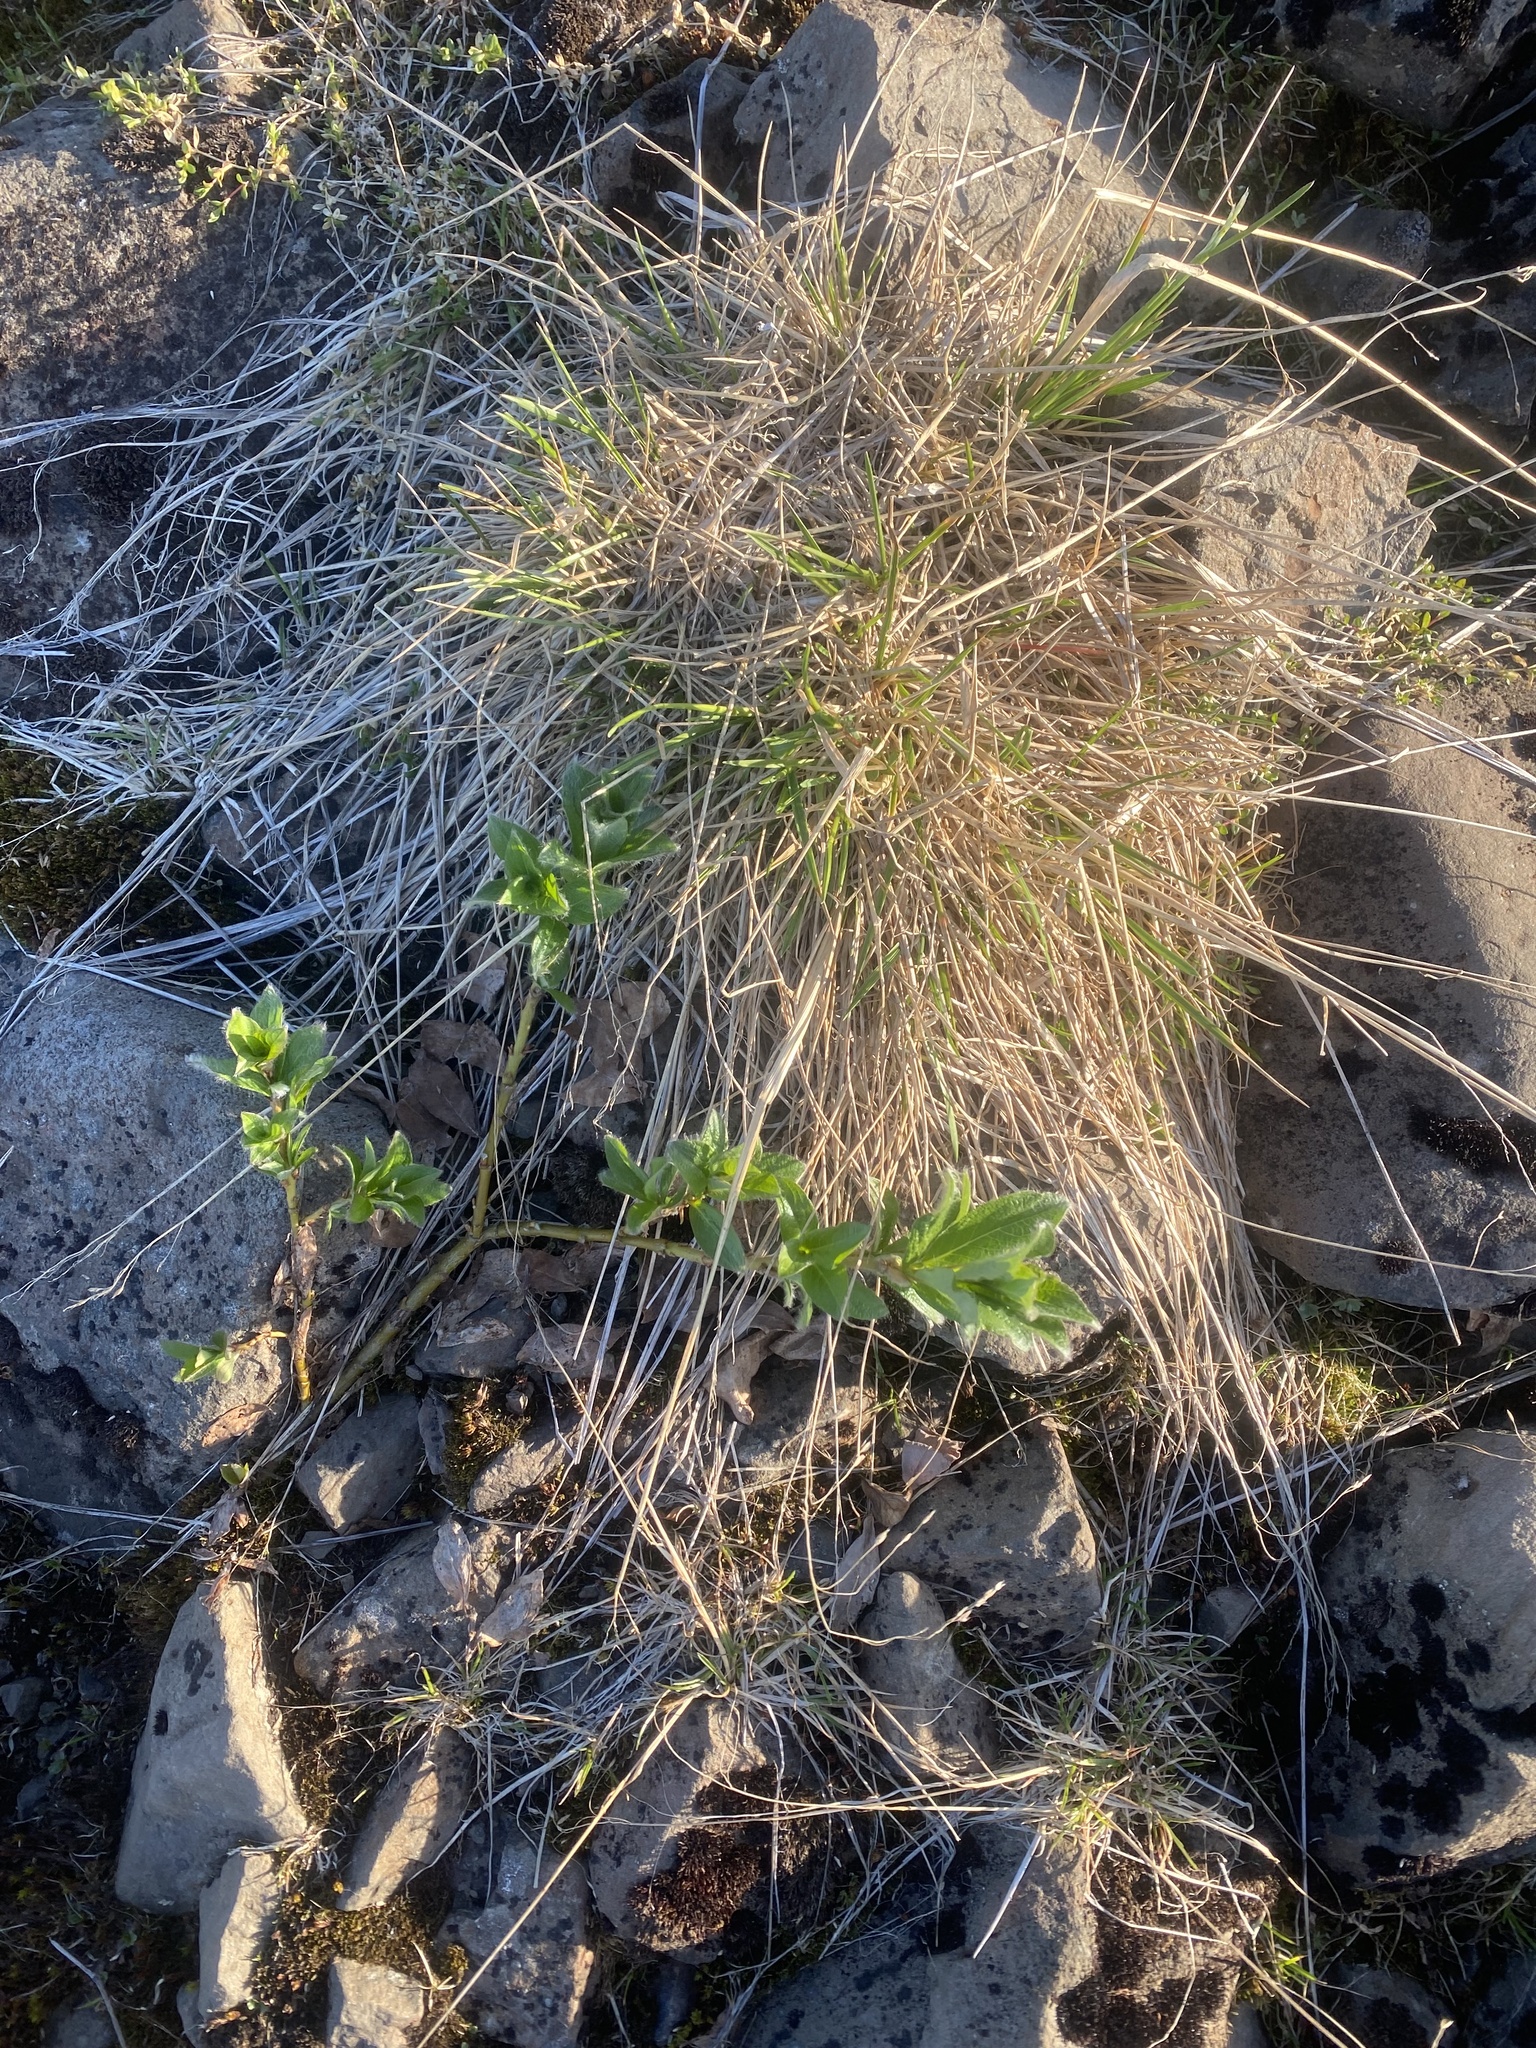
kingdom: Plantae
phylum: Tracheophyta
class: Magnoliopsida
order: Malpighiales
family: Salicaceae
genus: Salix
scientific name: Salix glauca
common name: Glaucous willow
